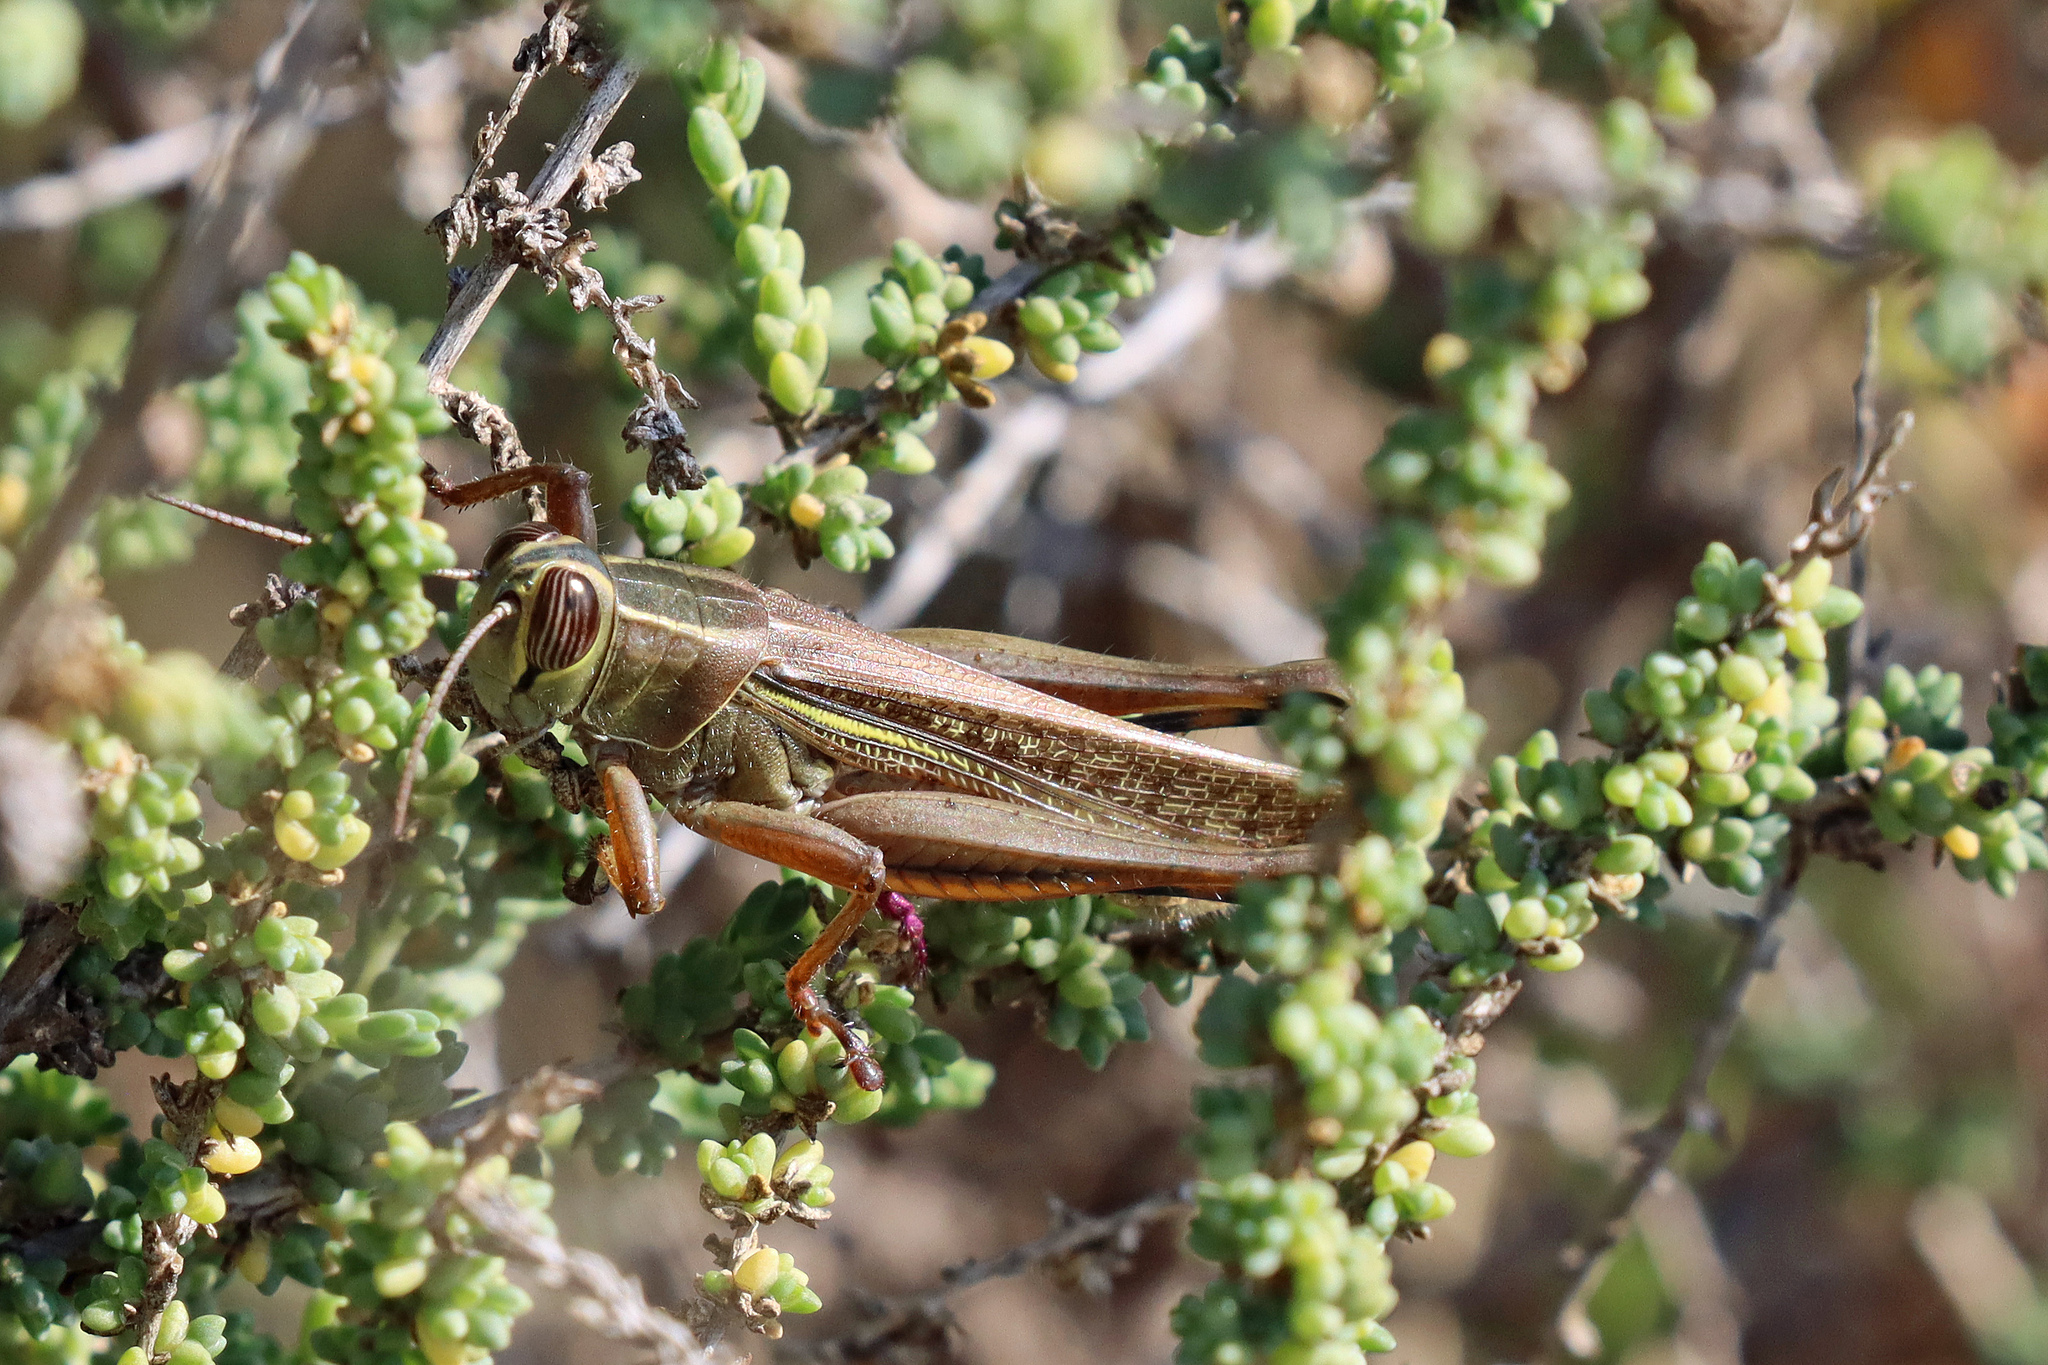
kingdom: Animalia
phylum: Arthropoda
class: Insecta
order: Orthoptera
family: Acrididae
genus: Eyprepocnemis
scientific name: Eyprepocnemis plorans
